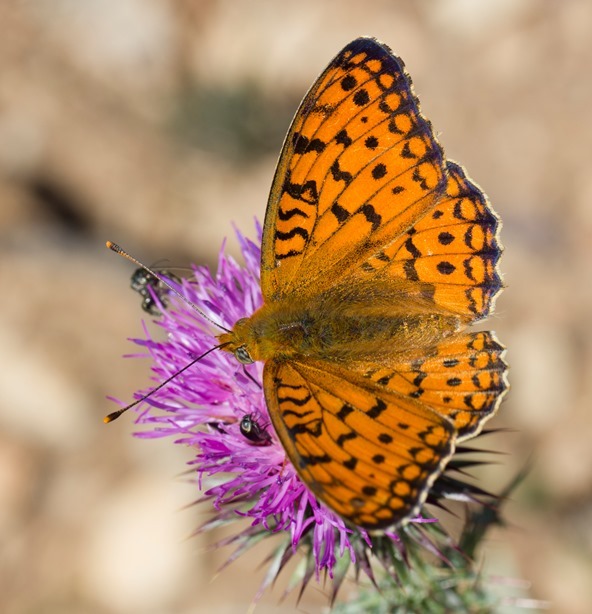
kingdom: Animalia
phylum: Arthropoda
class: Insecta
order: Lepidoptera
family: Nymphalidae
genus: Fabriciana
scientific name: Fabriciana niobe
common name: Niobe fritillary
